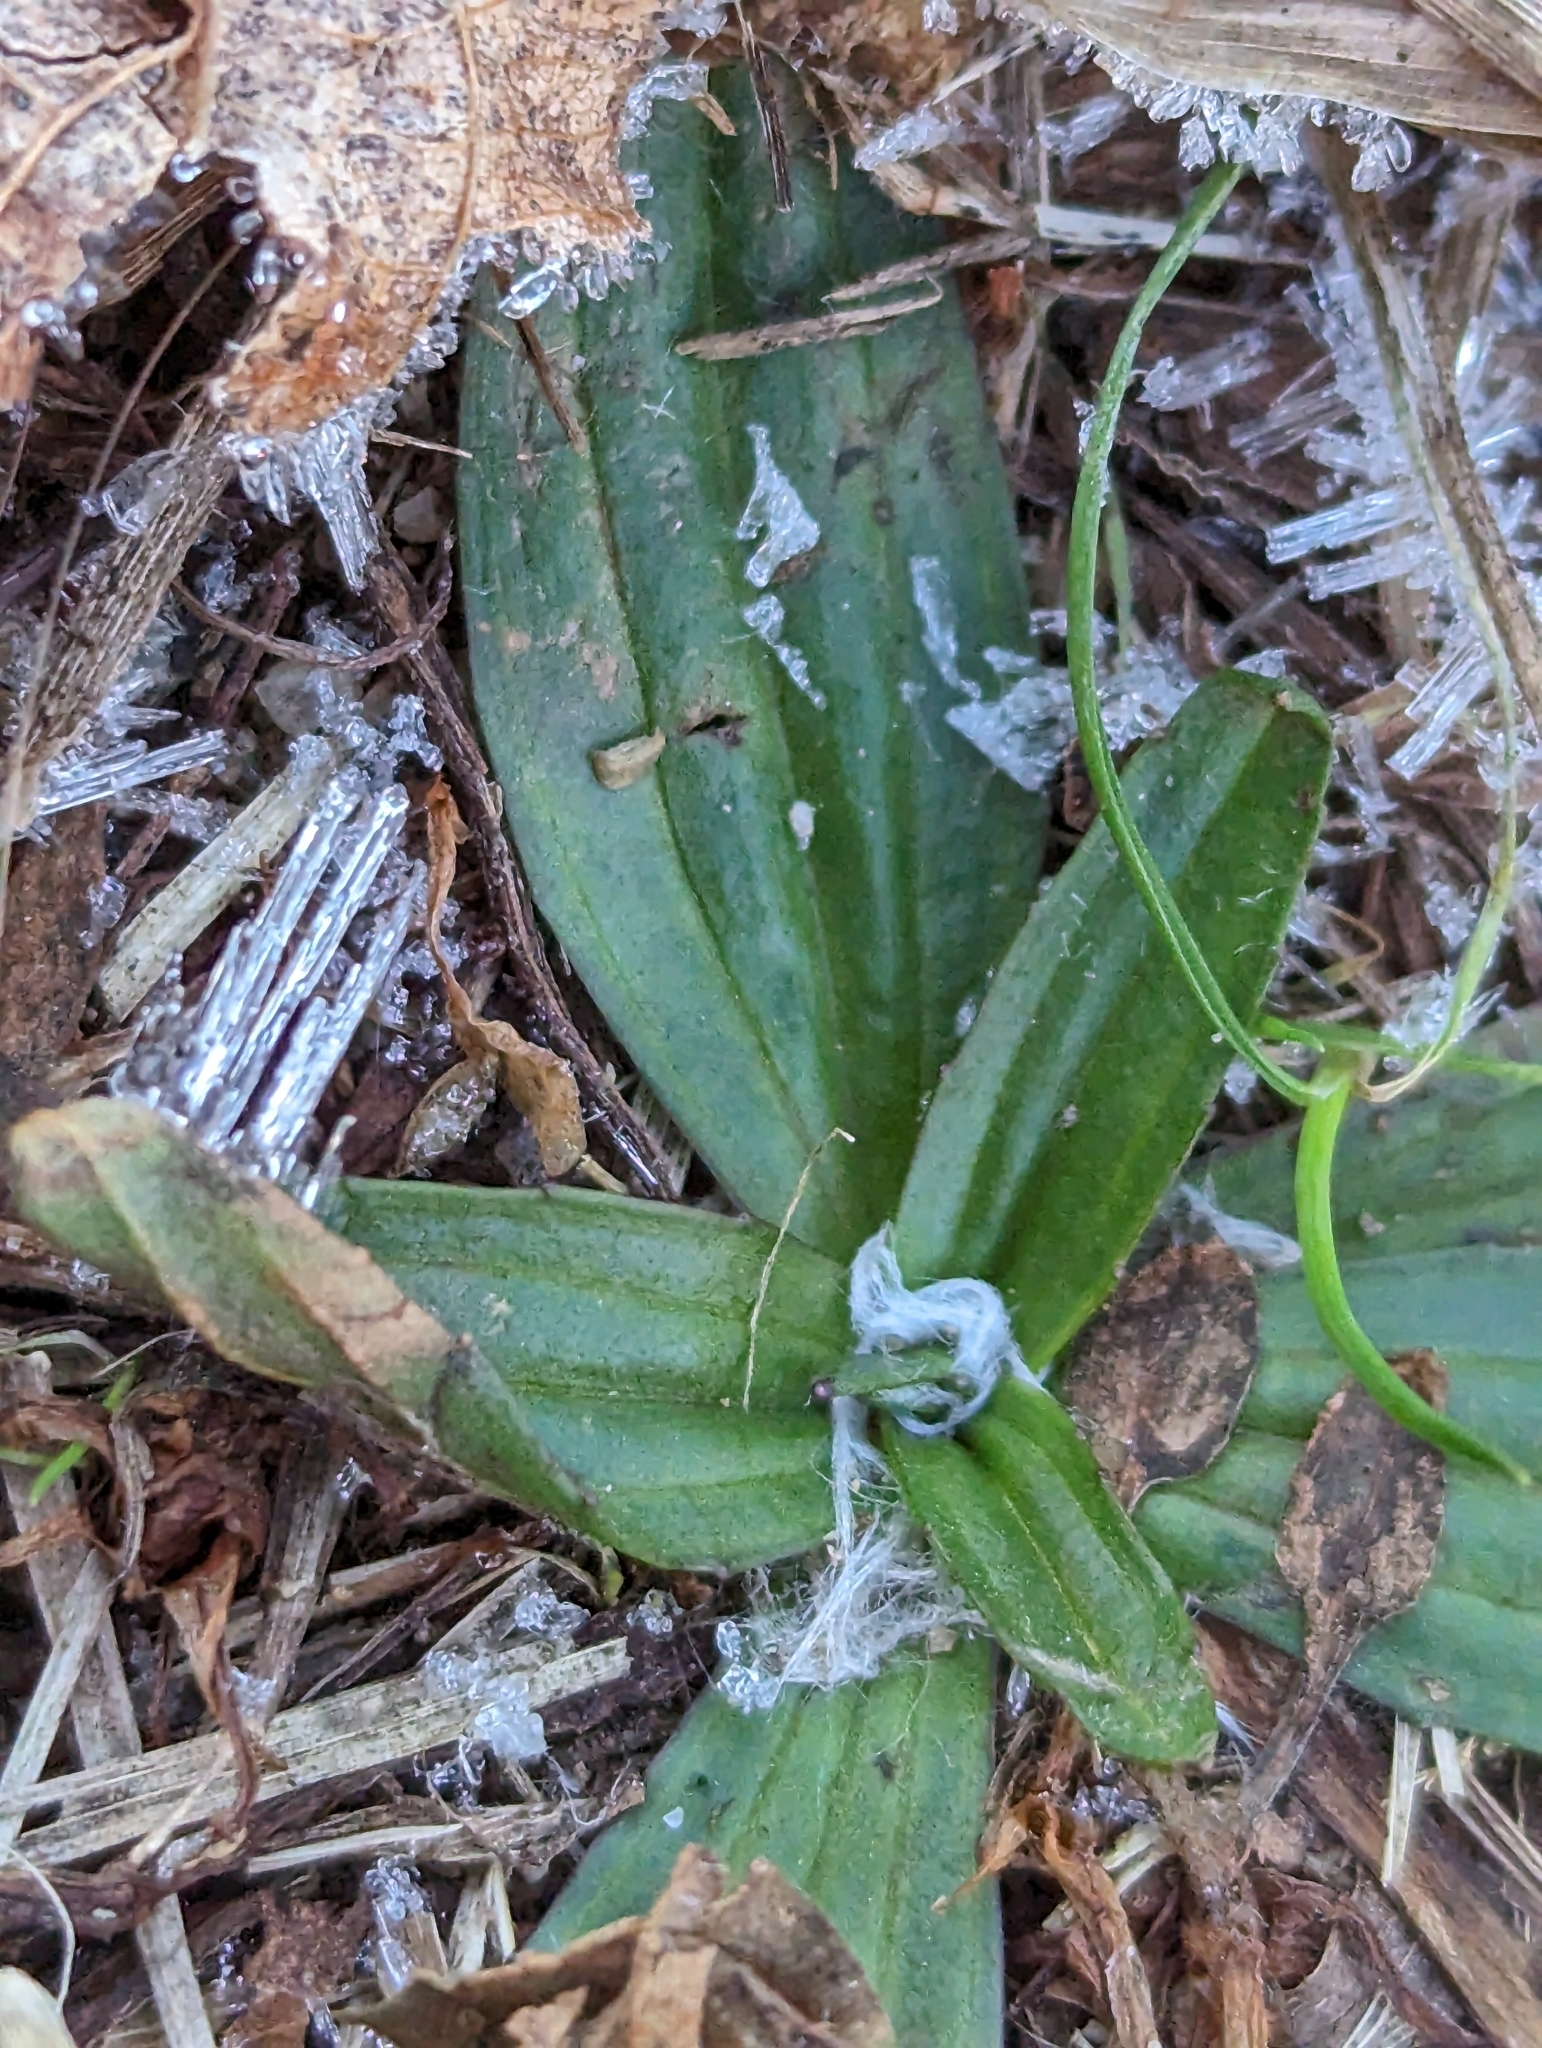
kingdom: Plantae
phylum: Tracheophyta
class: Magnoliopsida
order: Lamiales
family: Plantaginaceae
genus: Plantago
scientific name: Plantago lanceolata
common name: Ribwort plantain
